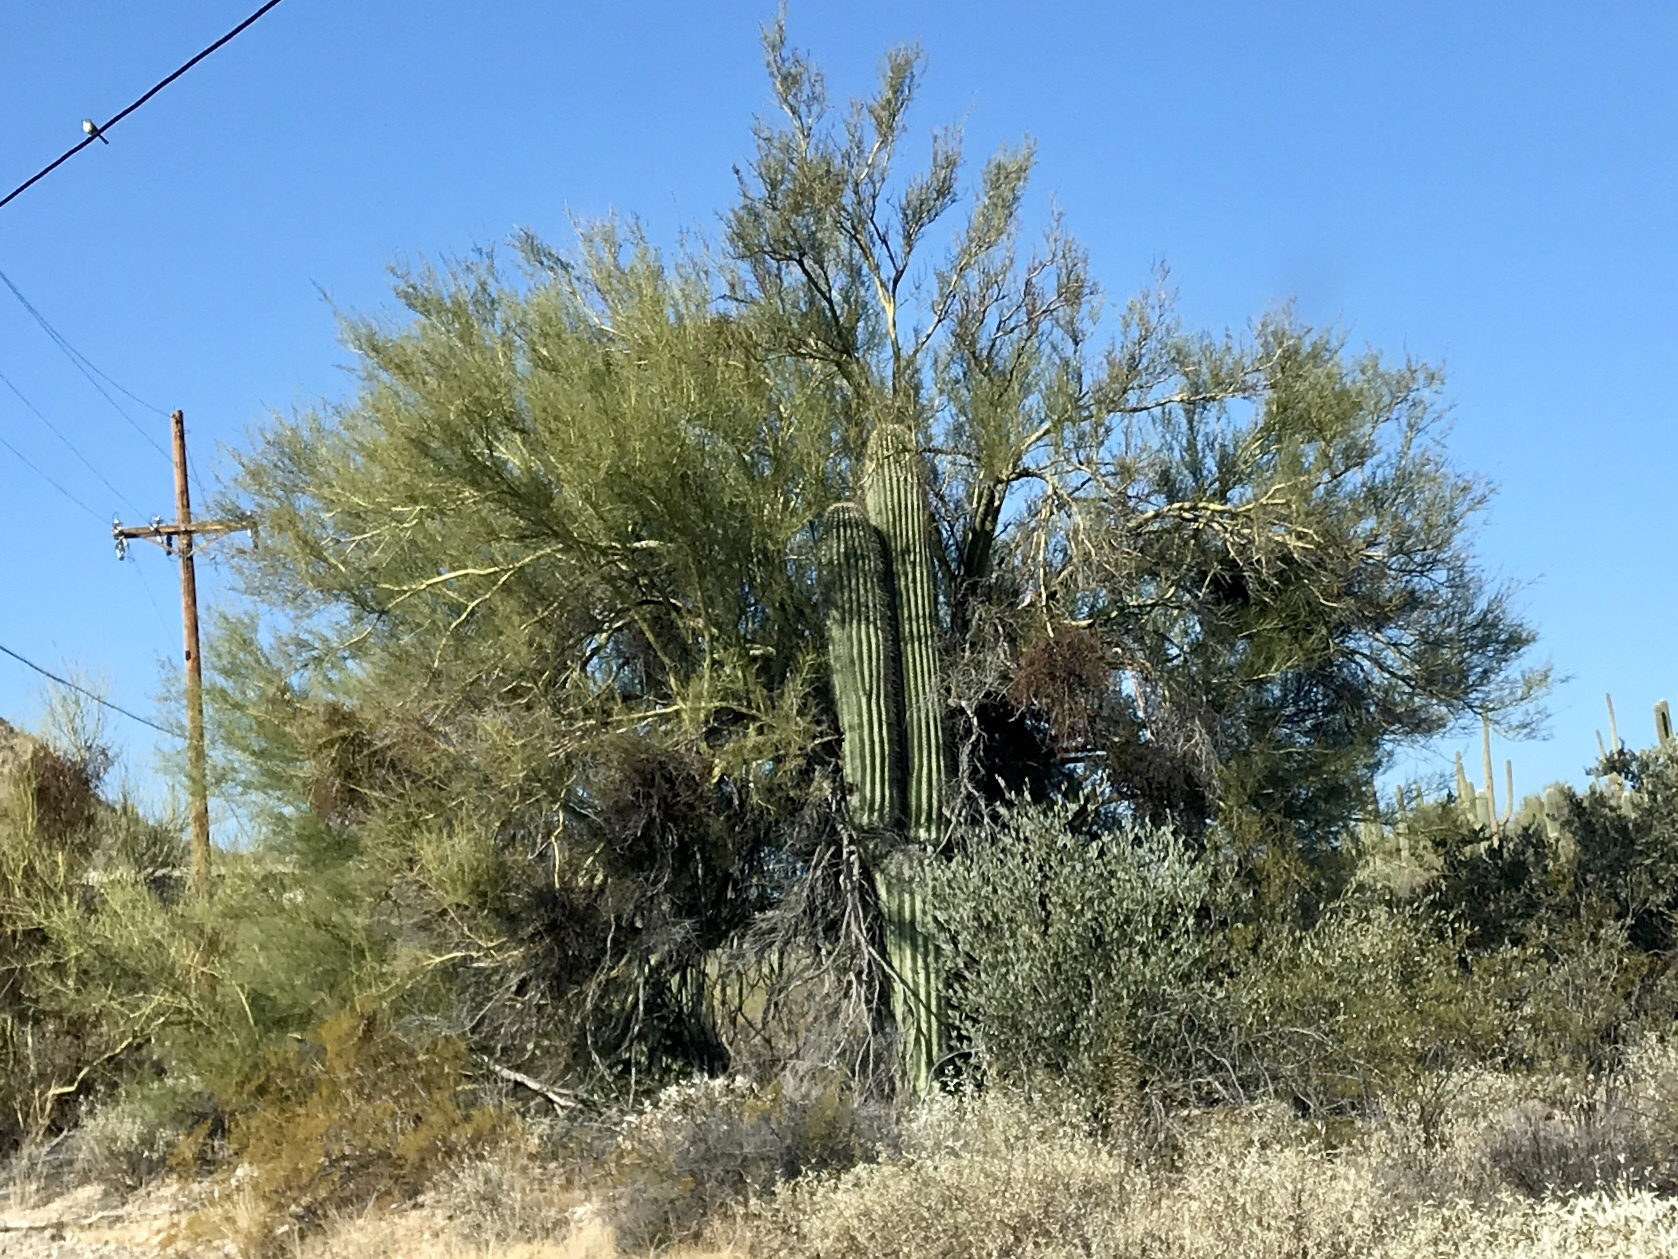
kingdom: Plantae
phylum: Tracheophyta
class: Magnoliopsida
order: Fabales
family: Fabaceae
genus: Parkinsonia
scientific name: Parkinsonia microphylla
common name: Yellow paloverde
